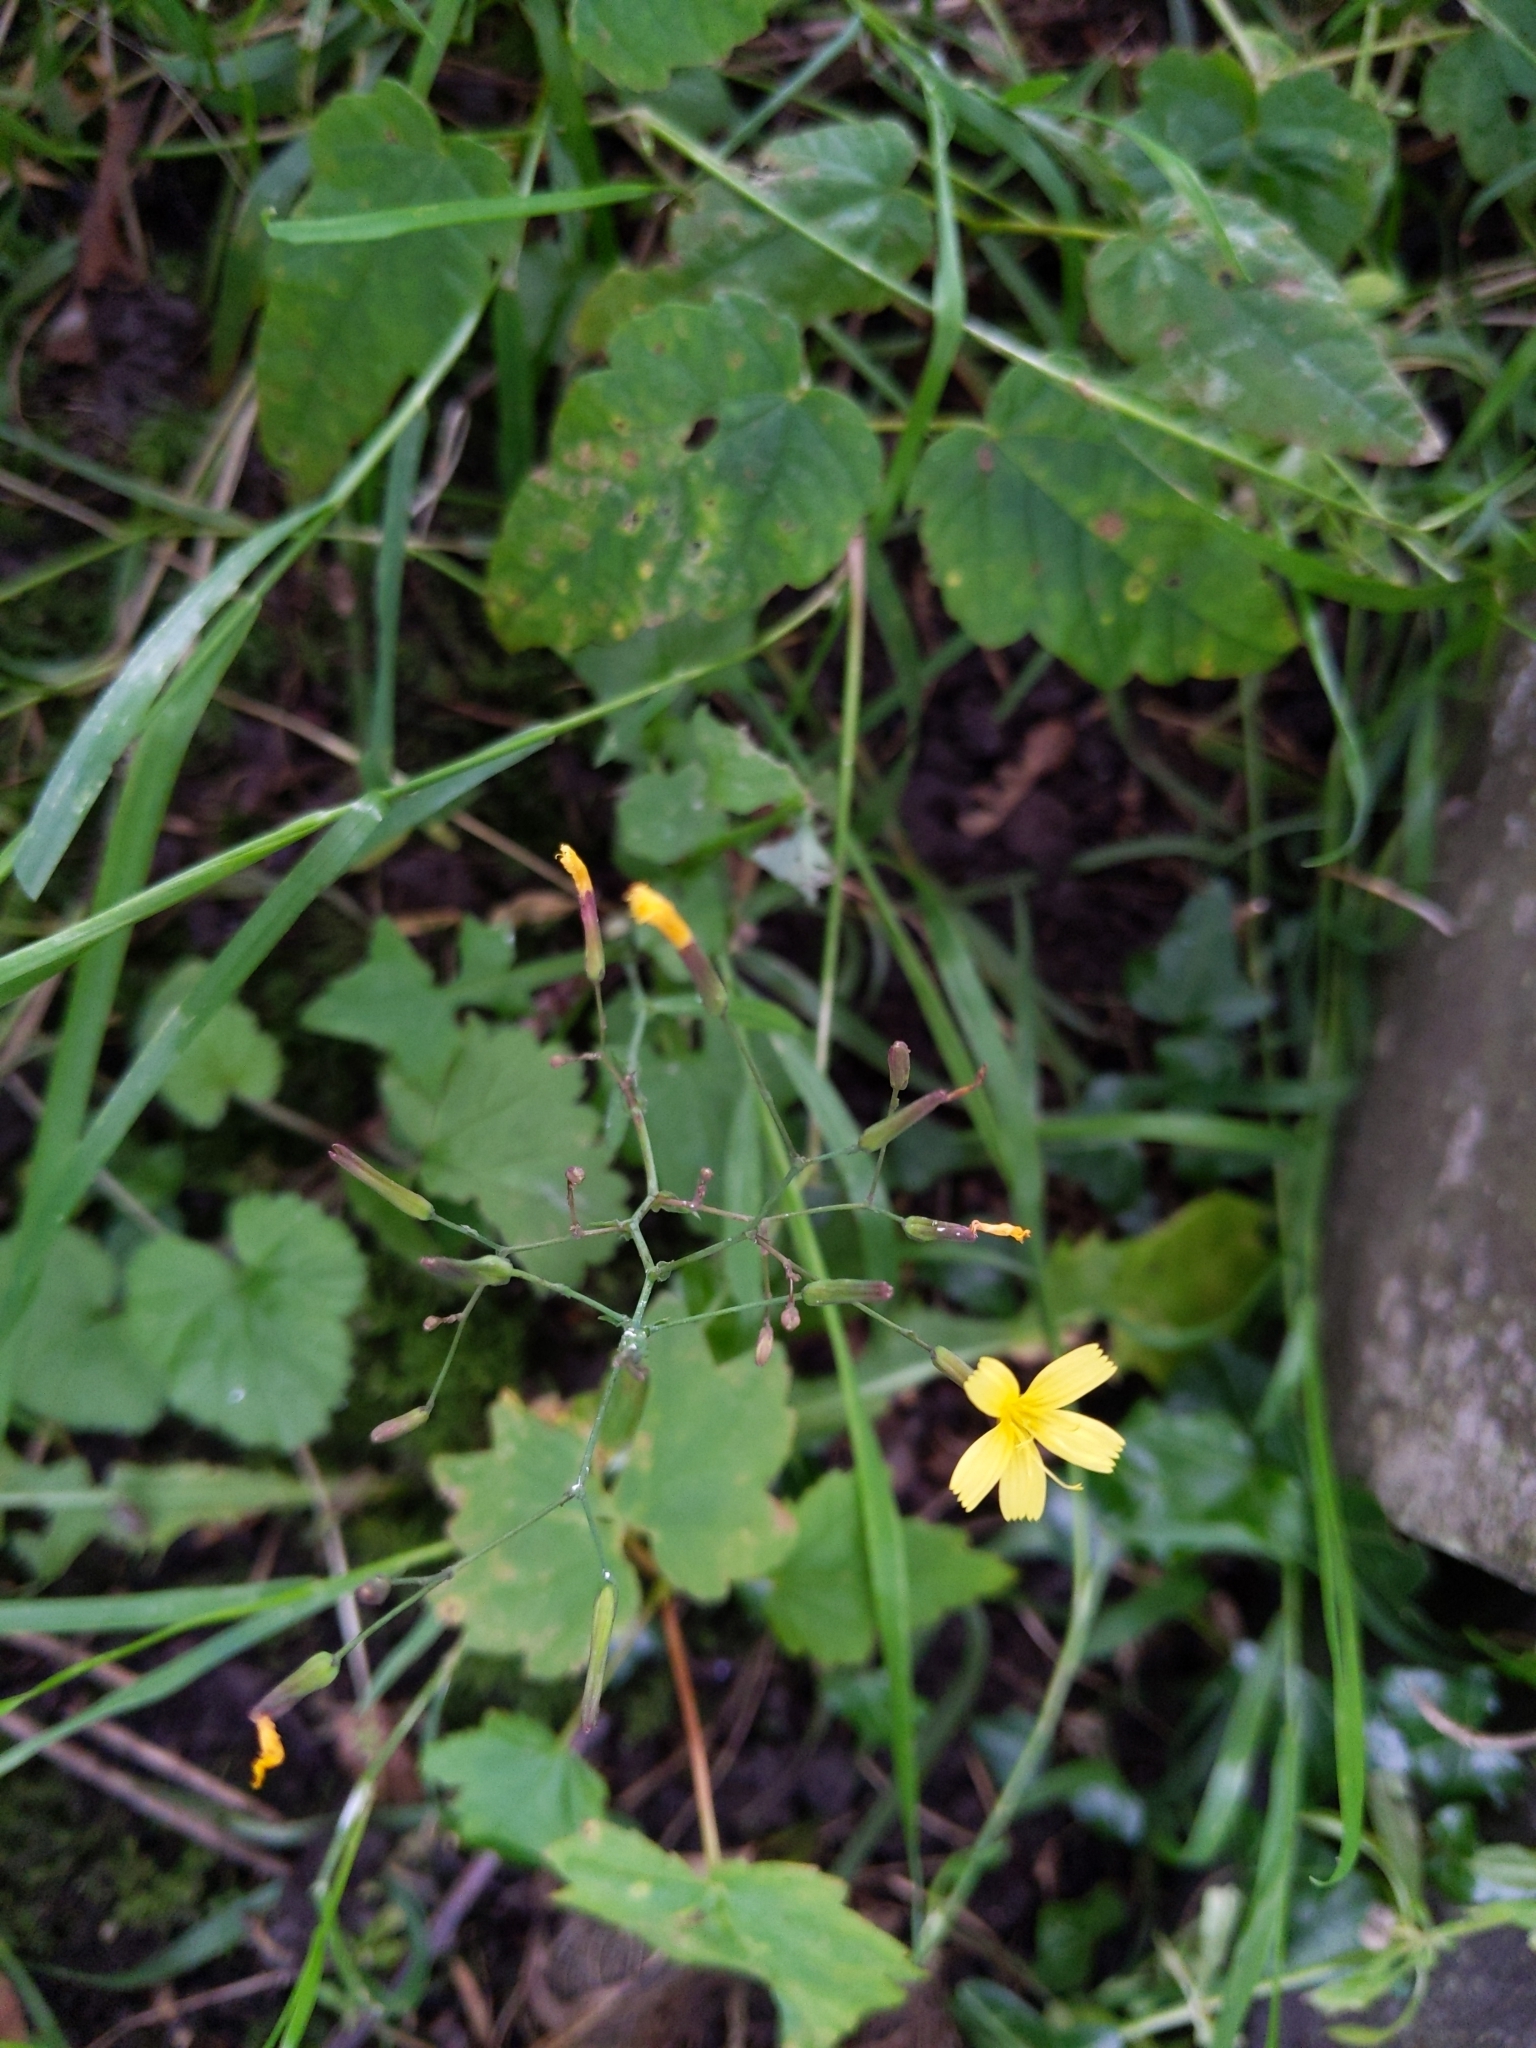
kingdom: Plantae
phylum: Tracheophyta
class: Magnoliopsida
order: Asterales
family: Asteraceae
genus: Mycelis
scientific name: Mycelis muralis
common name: Wall lettuce
